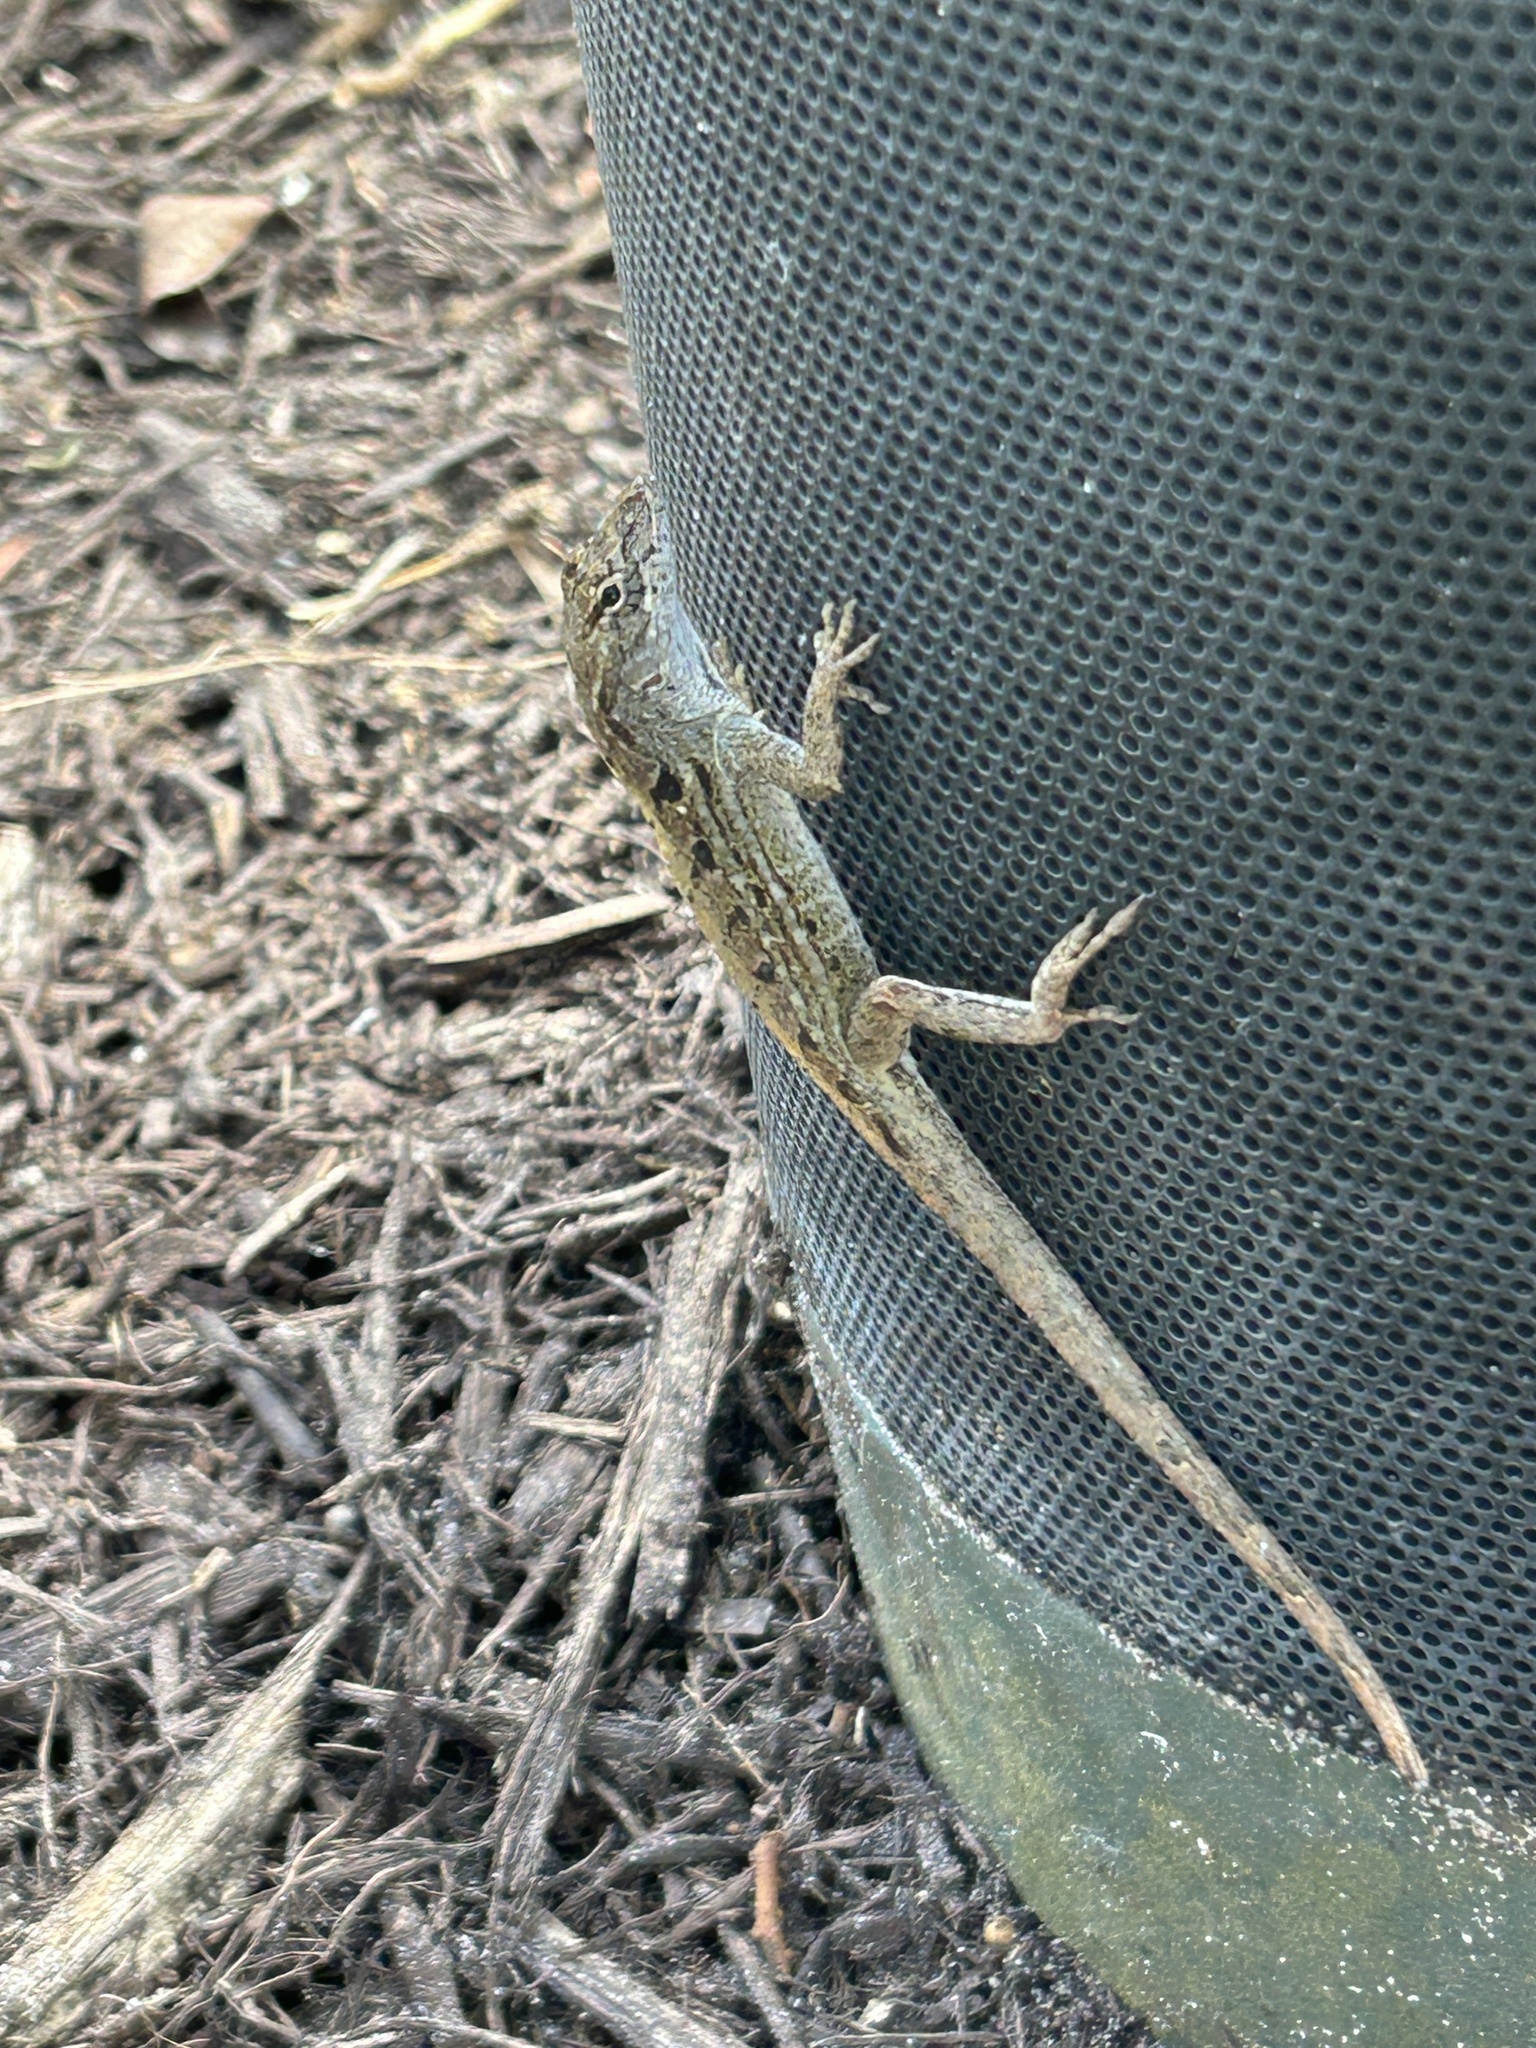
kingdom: Animalia
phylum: Chordata
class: Squamata
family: Dactyloidae
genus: Anolis
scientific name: Anolis sagrei
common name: Brown anole
